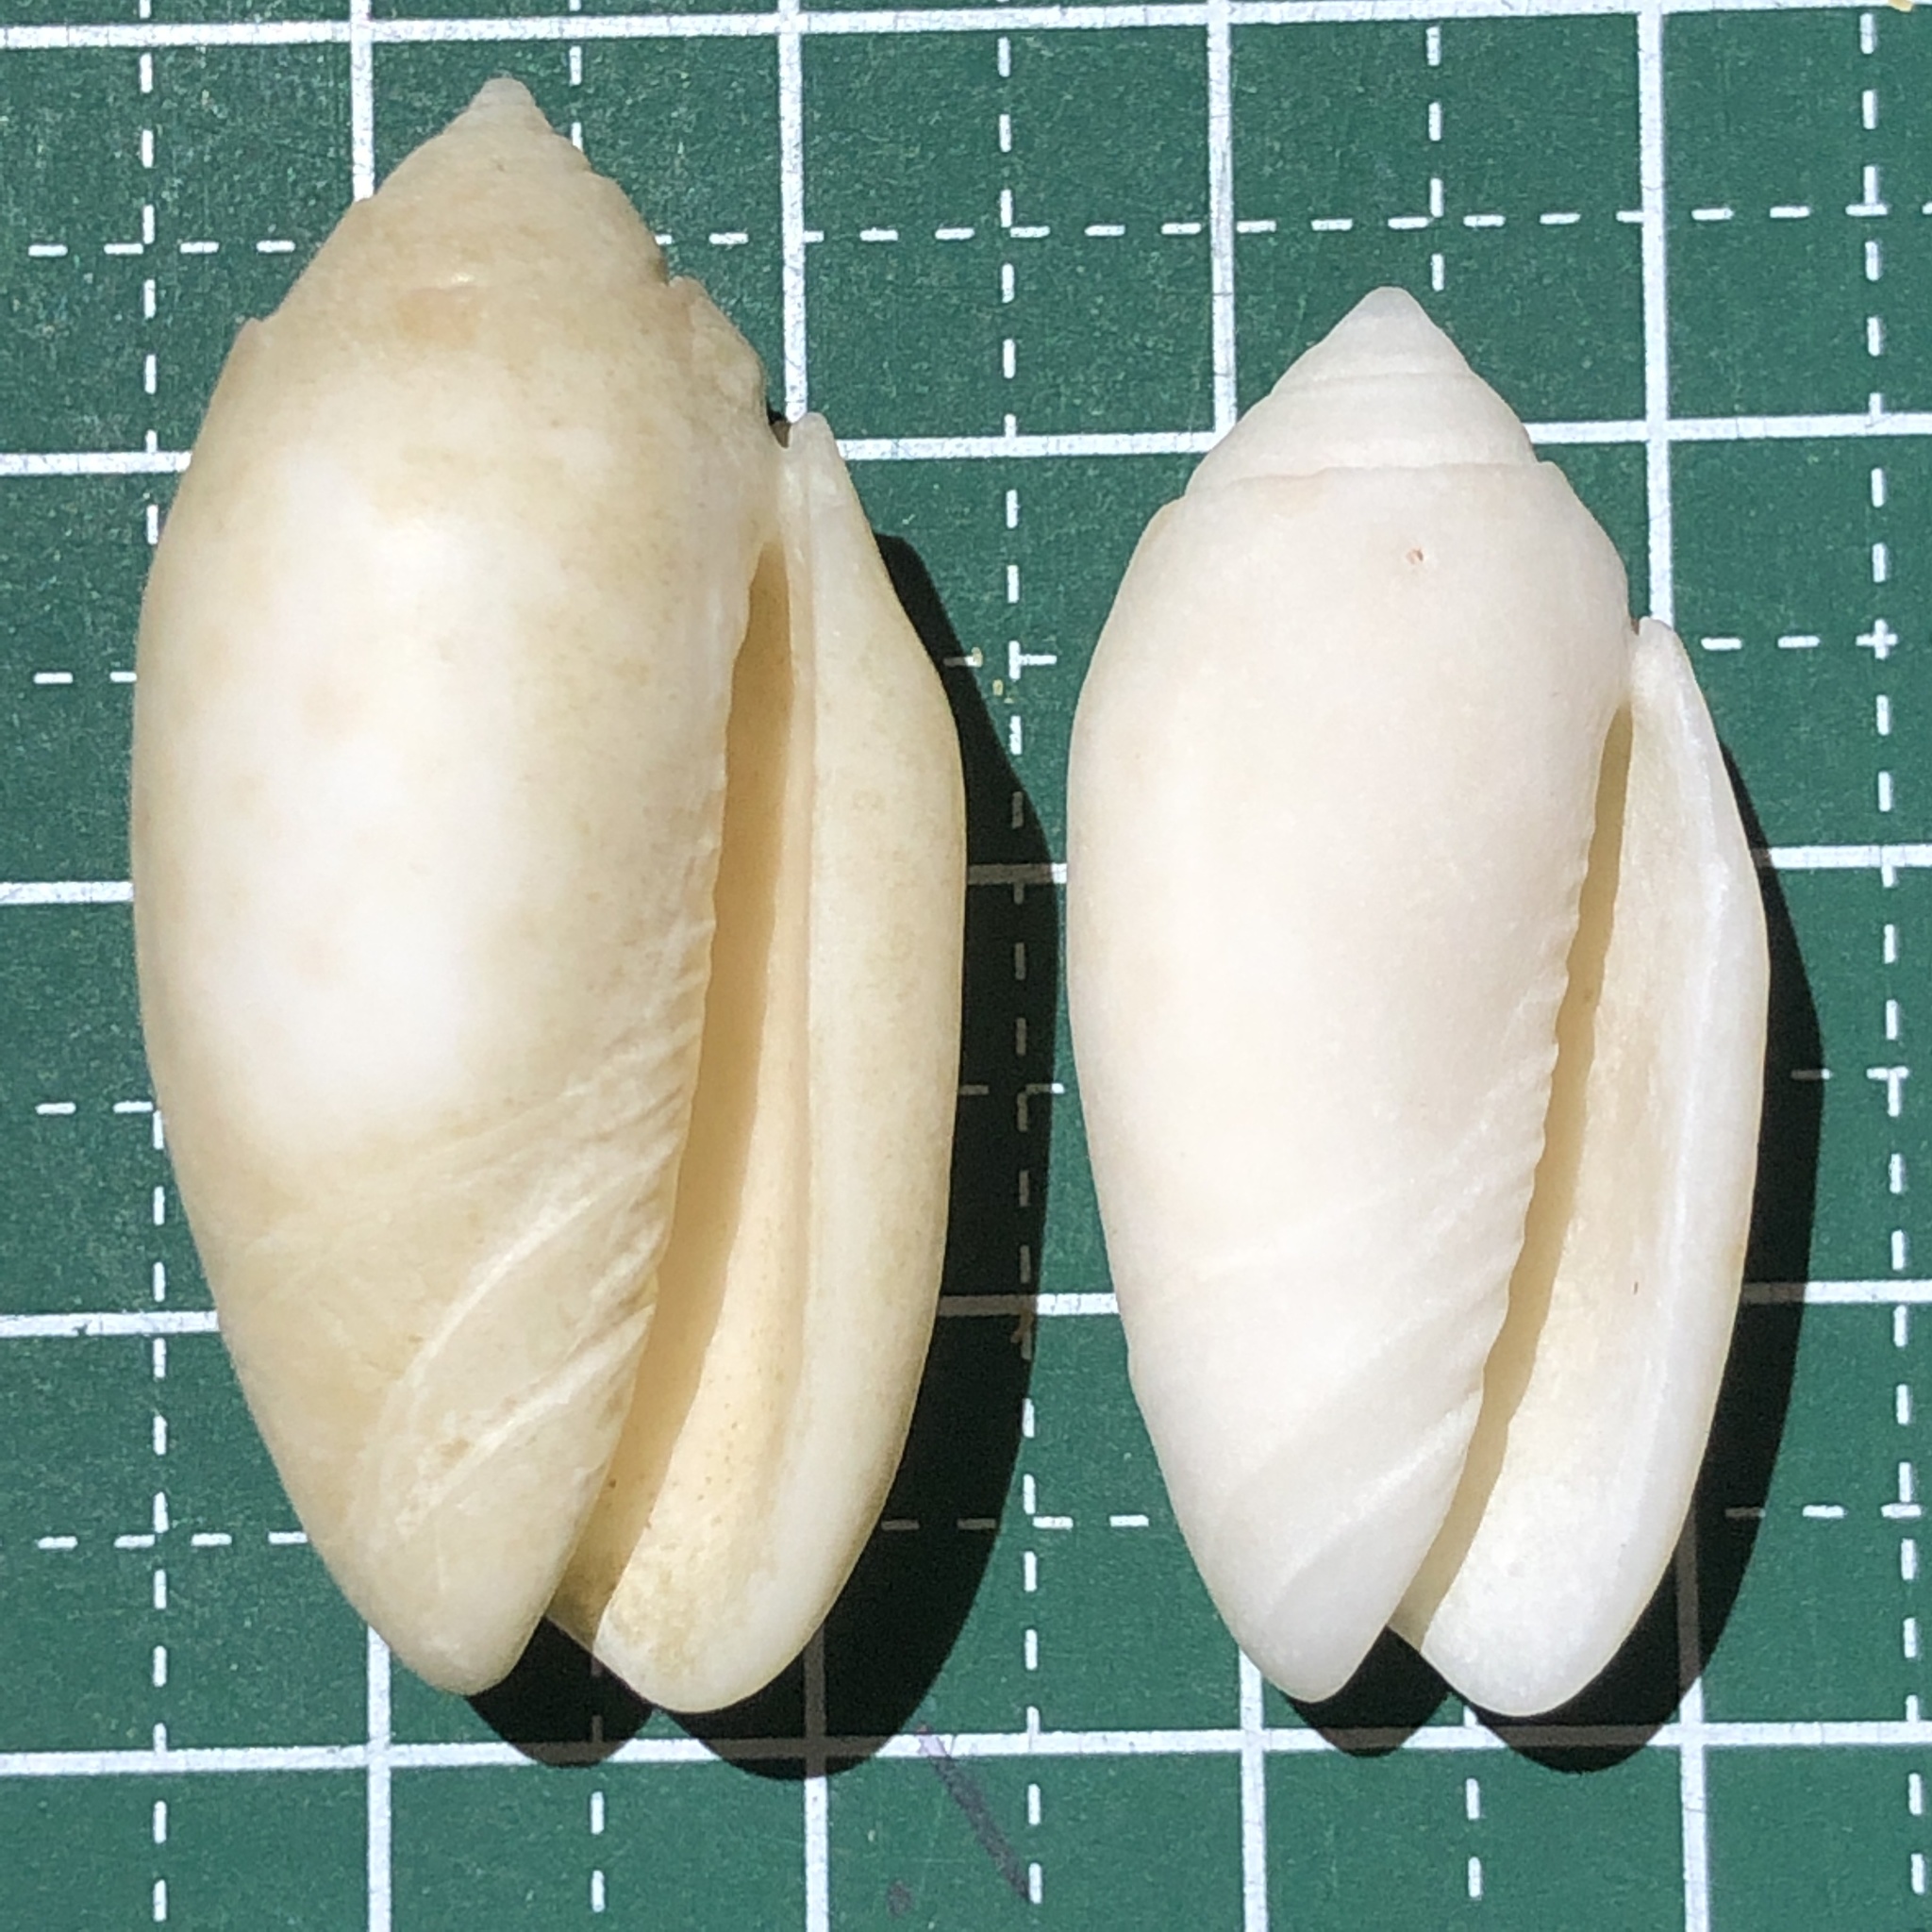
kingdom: Animalia
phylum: Mollusca
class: Gastropoda
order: Neogastropoda
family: Olividae
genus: Oliva
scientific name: Oliva amethystina
